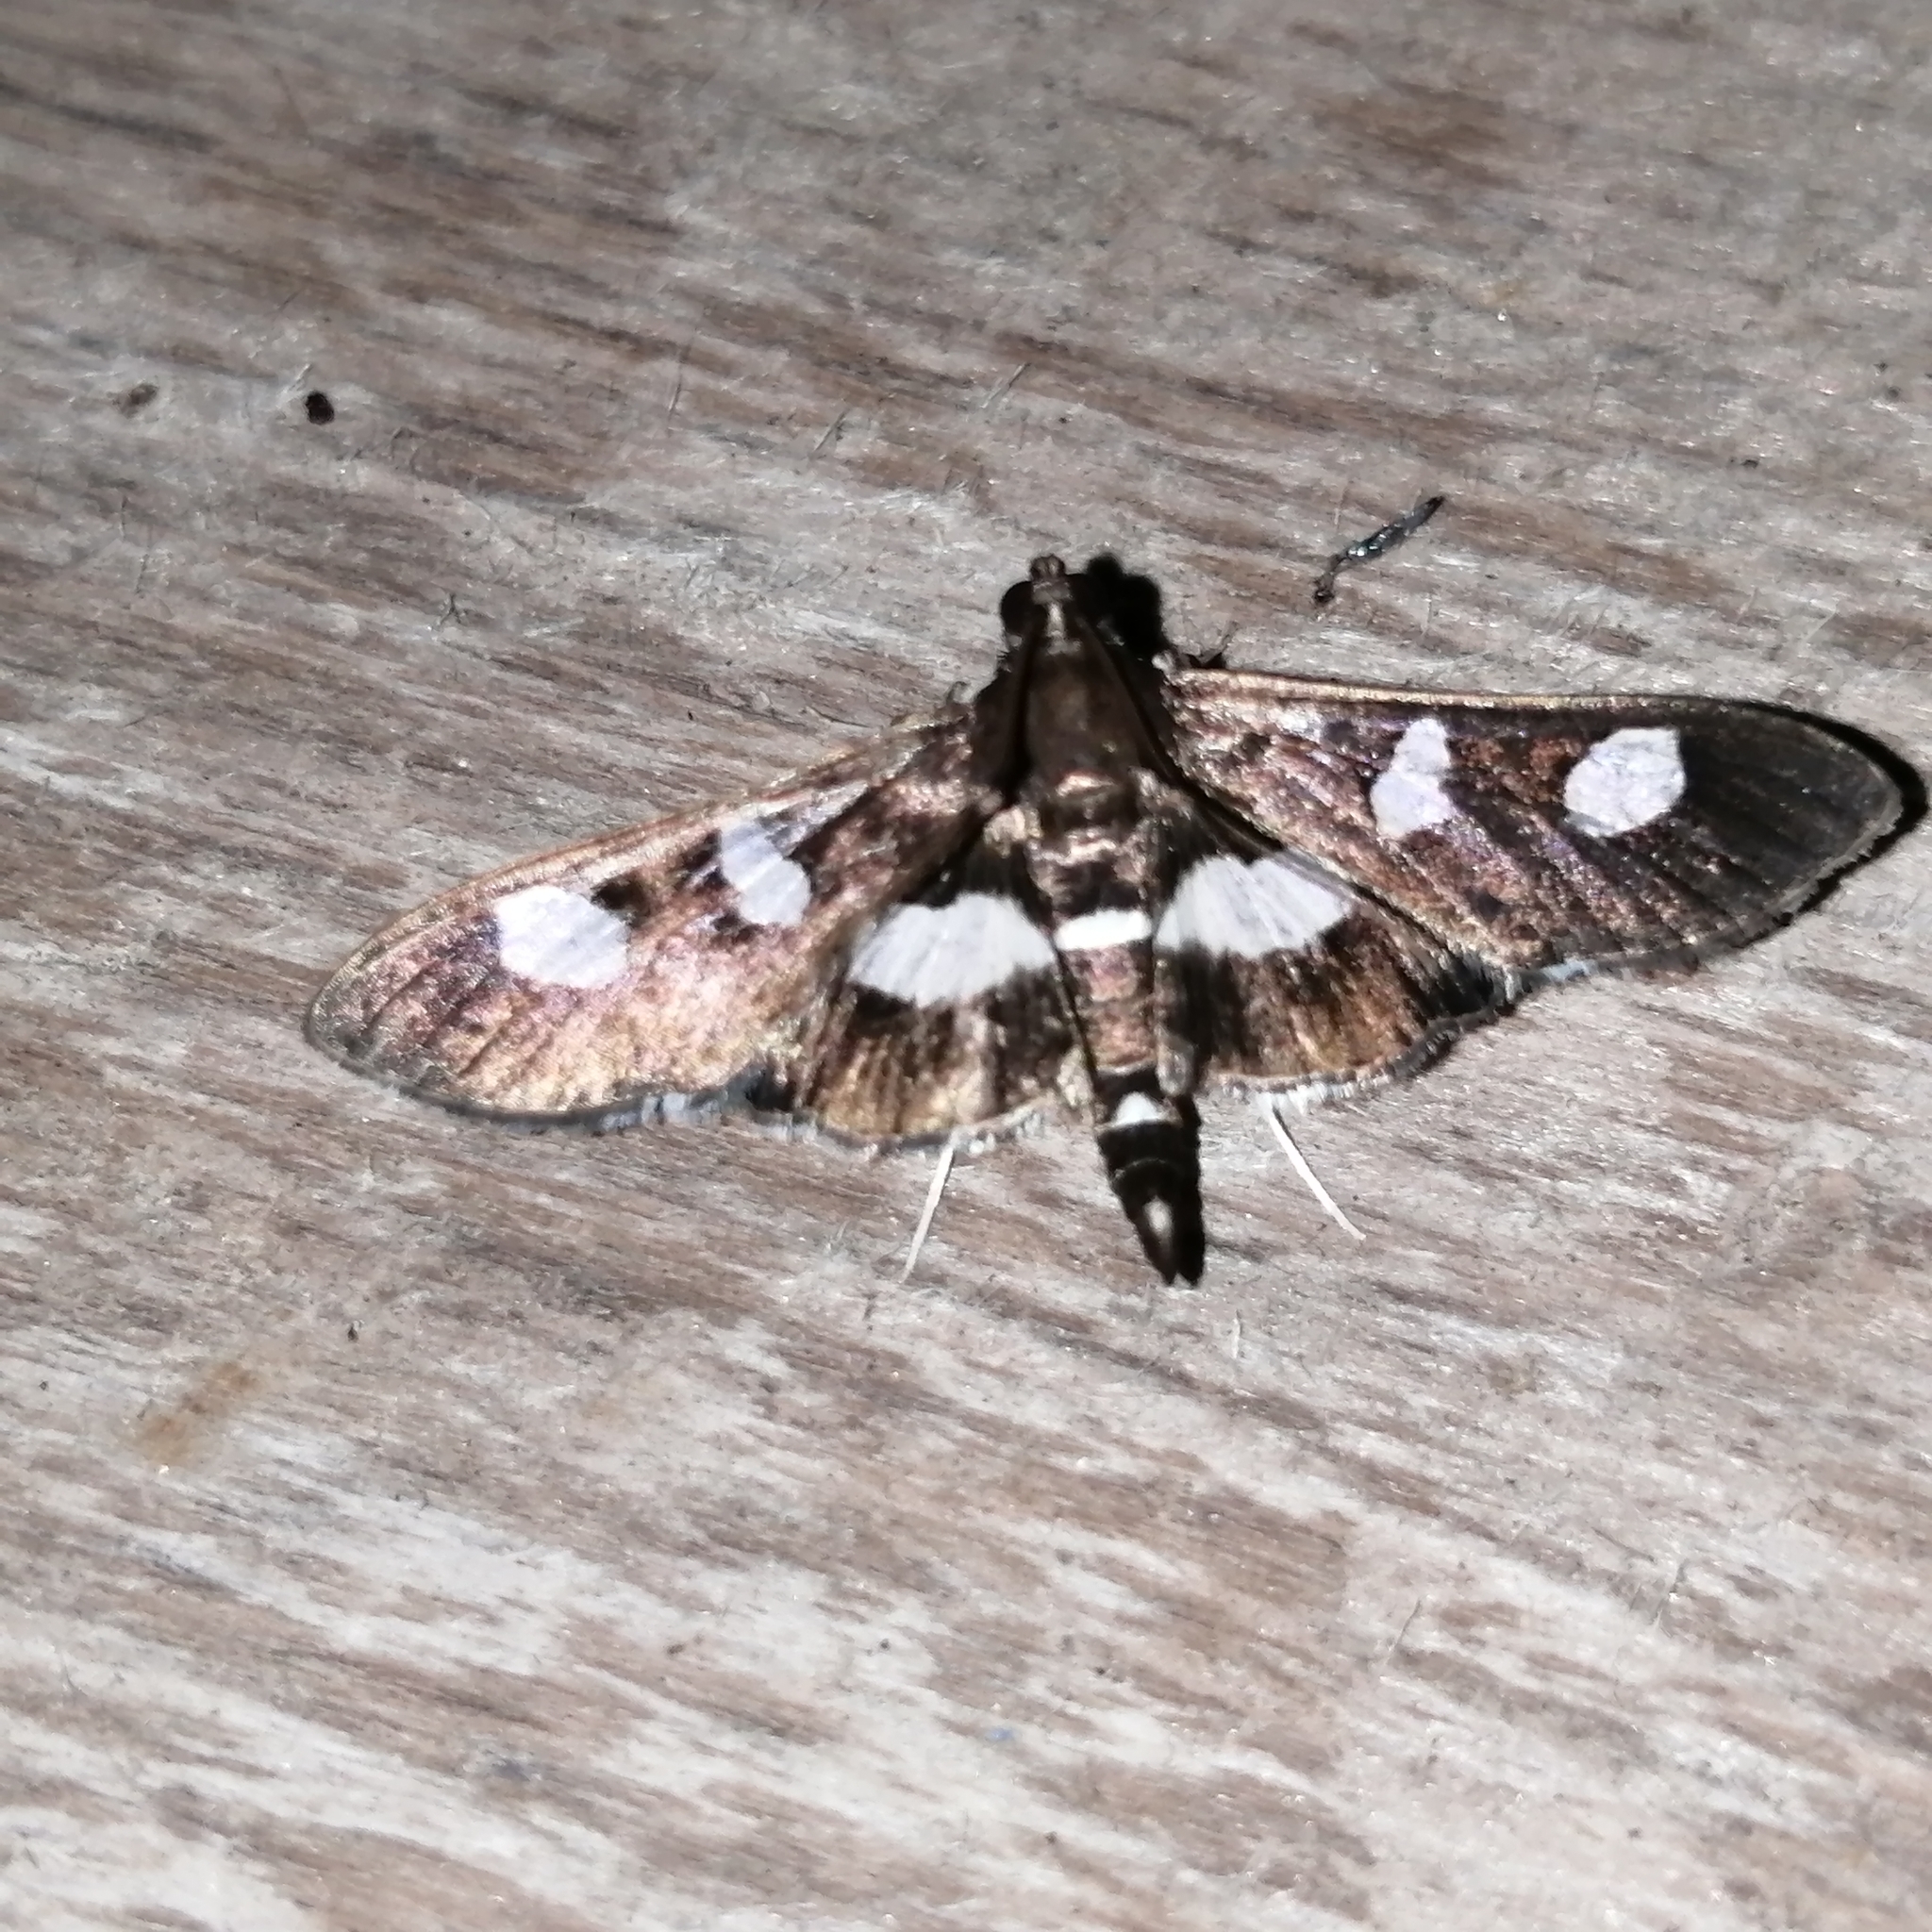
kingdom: Animalia
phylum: Arthropoda
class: Insecta
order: Lepidoptera
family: Crambidae
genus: Desmia
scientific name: Desmia
